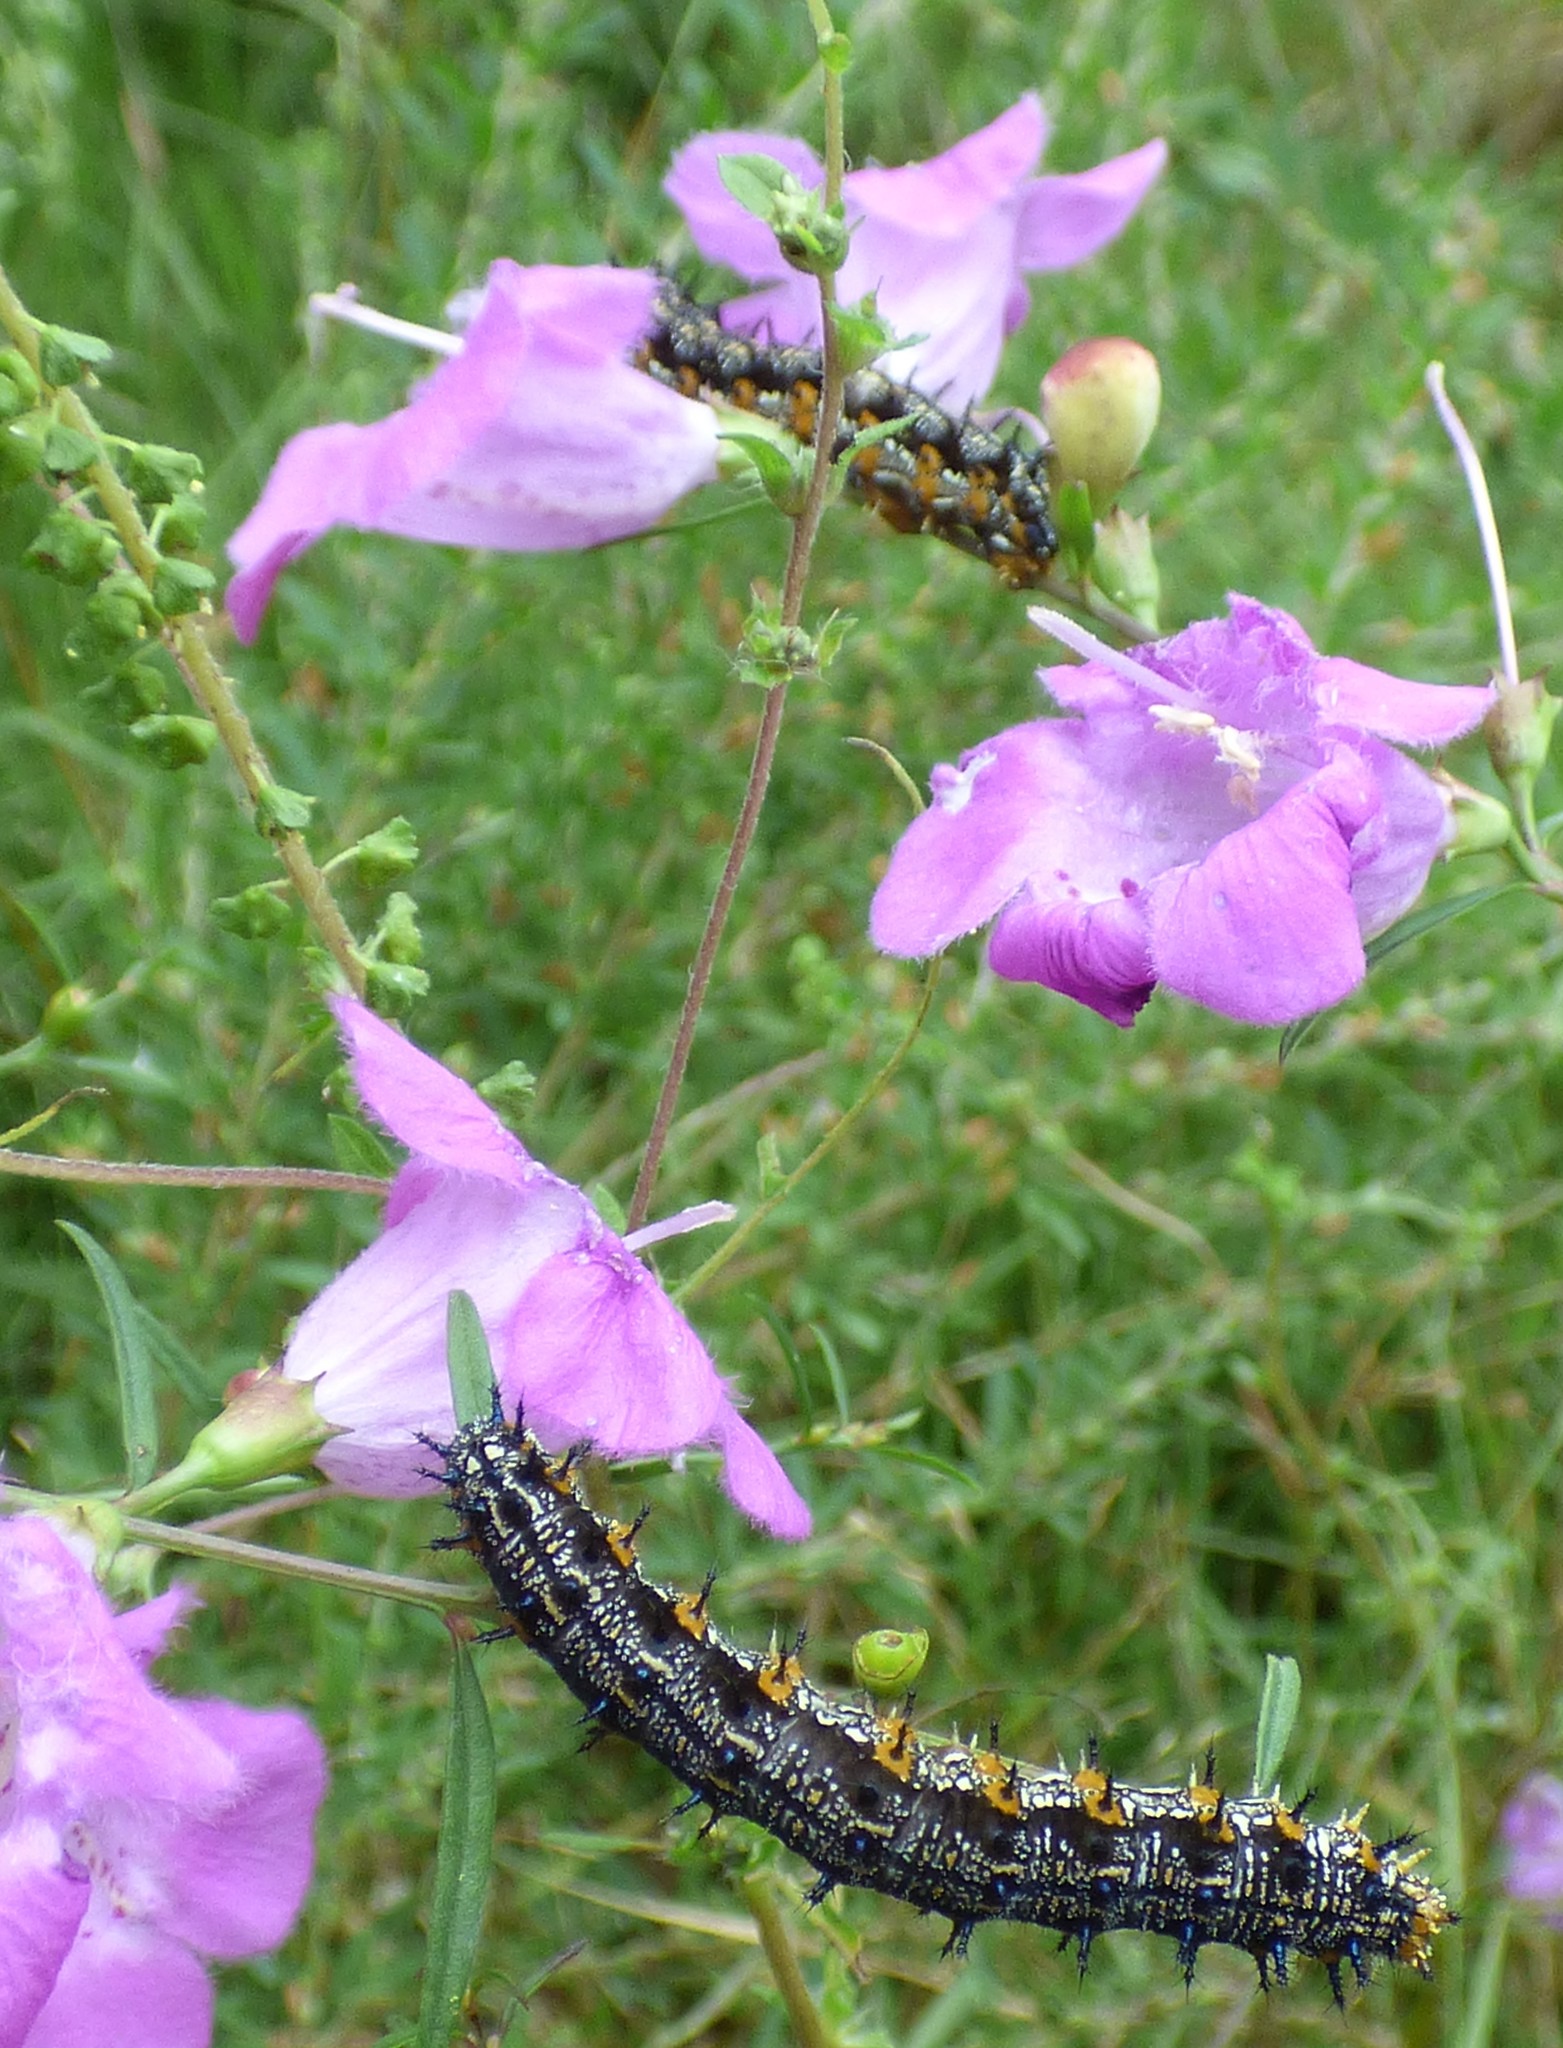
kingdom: Animalia
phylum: Arthropoda
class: Insecta
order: Lepidoptera
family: Nymphalidae
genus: Junonia
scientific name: Junonia coenia
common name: Common buckeye
